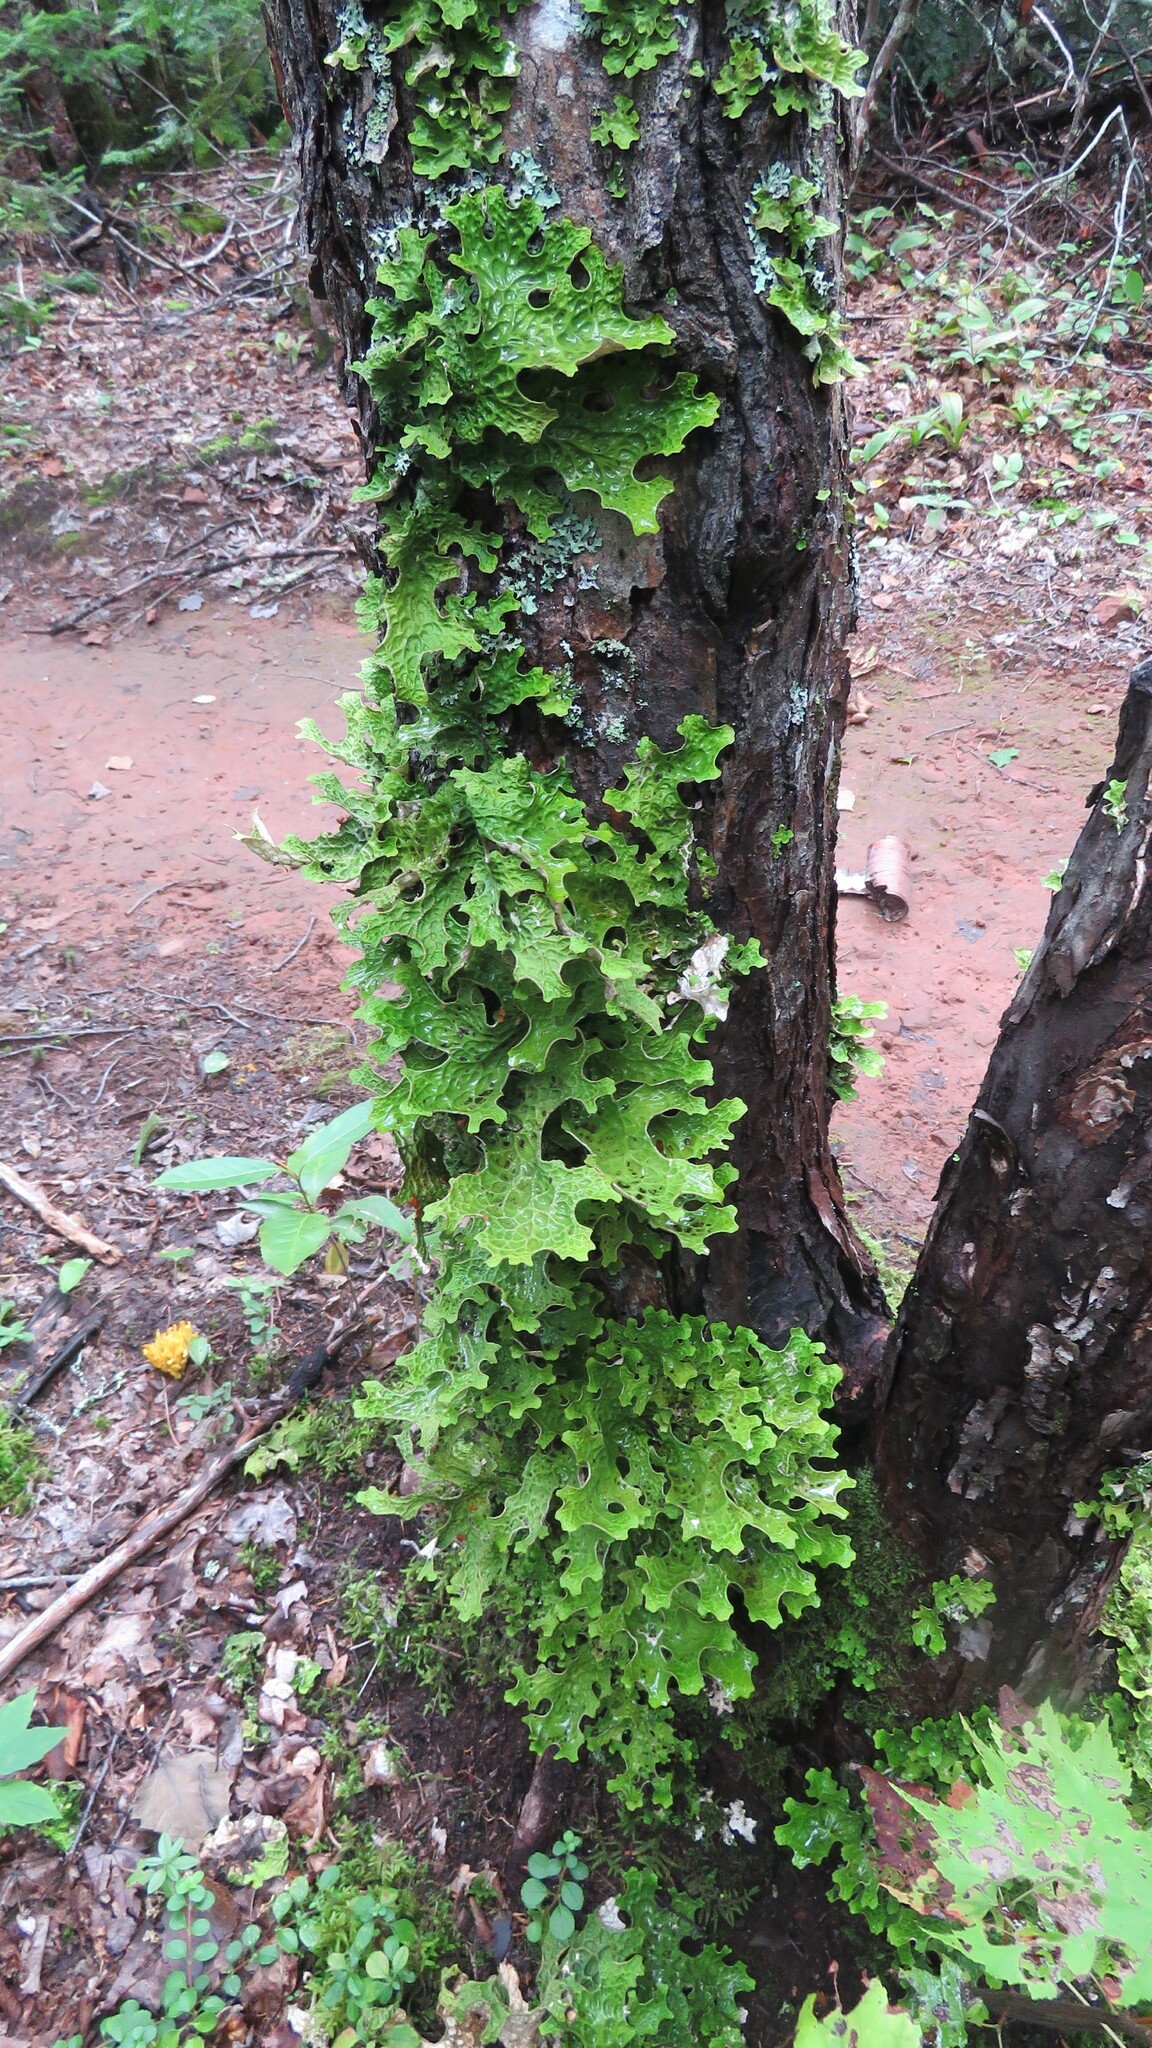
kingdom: Fungi
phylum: Ascomycota
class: Lecanoromycetes
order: Peltigerales
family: Lobariaceae
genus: Lobaria
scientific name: Lobaria pulmonaria
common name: Lungwort
